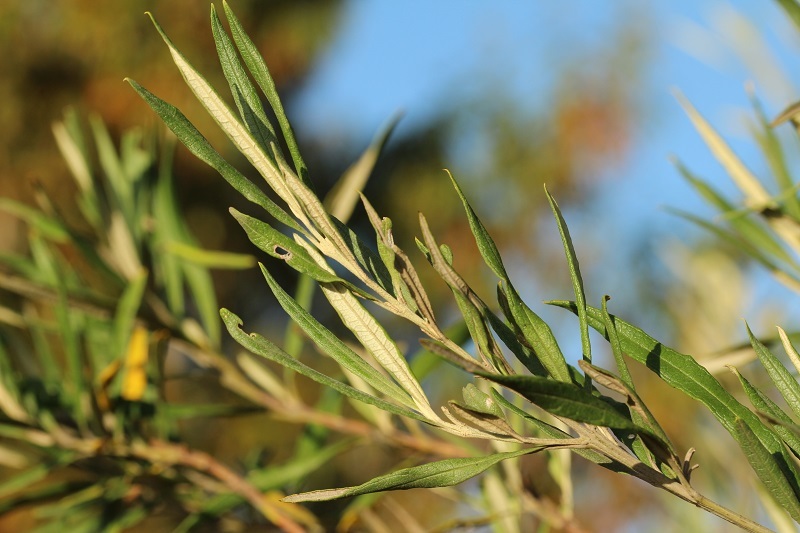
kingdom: Plantae
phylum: Tracheophyta
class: Magnoliopsida
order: Lamiales
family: Scrophulariaceae
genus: Buddleja
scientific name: Buddleja saligna
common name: False olive
